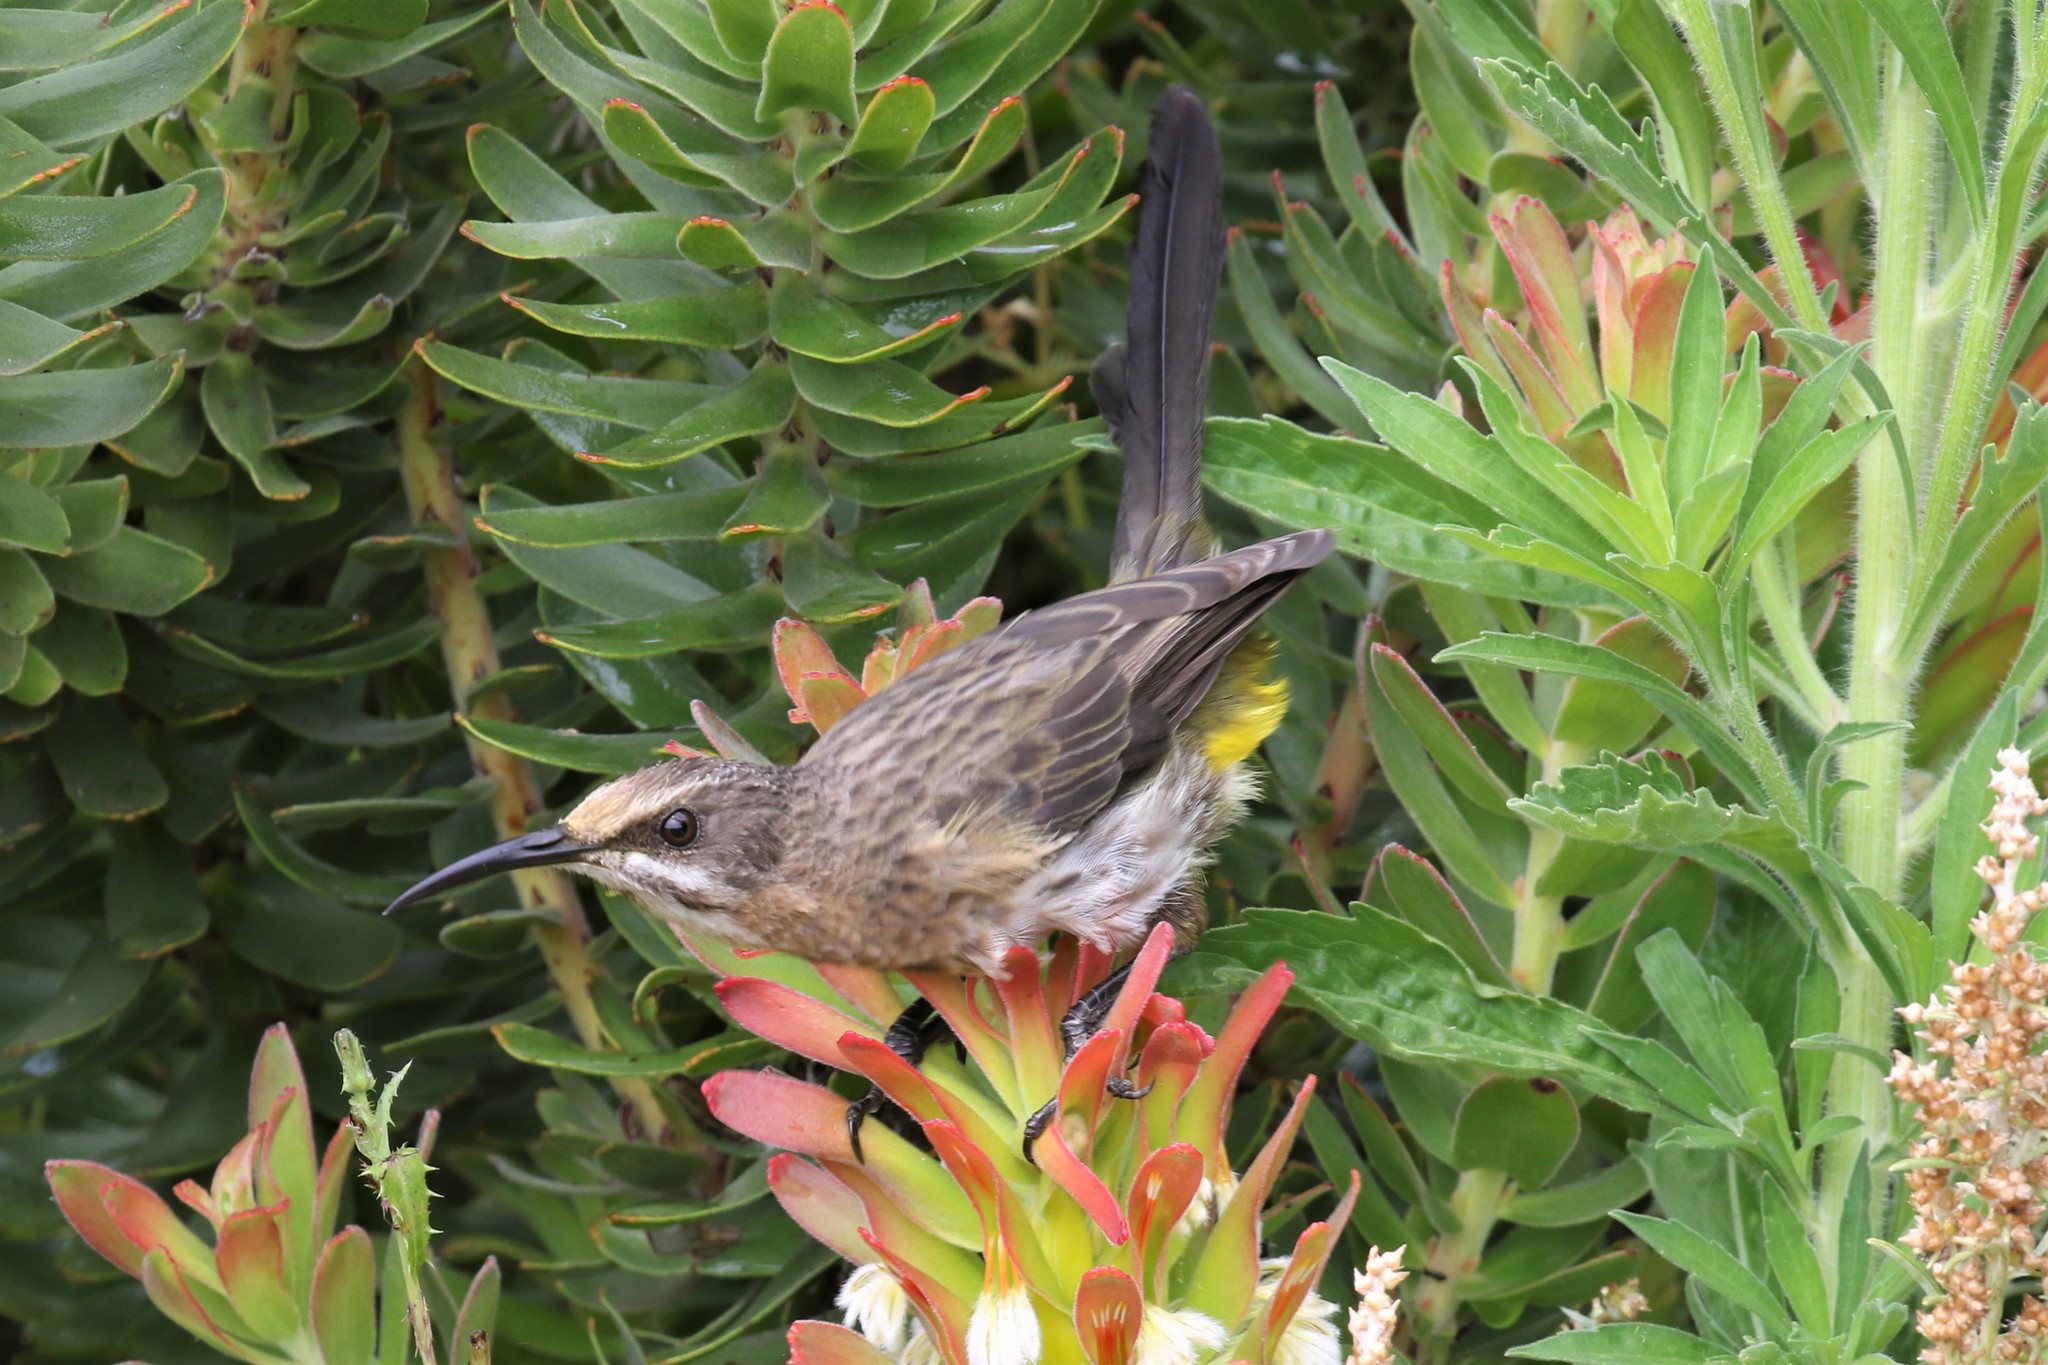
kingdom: Animalia
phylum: Chordata
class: Aves
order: Passeriformes
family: Promeropidae
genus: Promerops
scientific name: Promerops cafer
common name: Cape sugarbird
